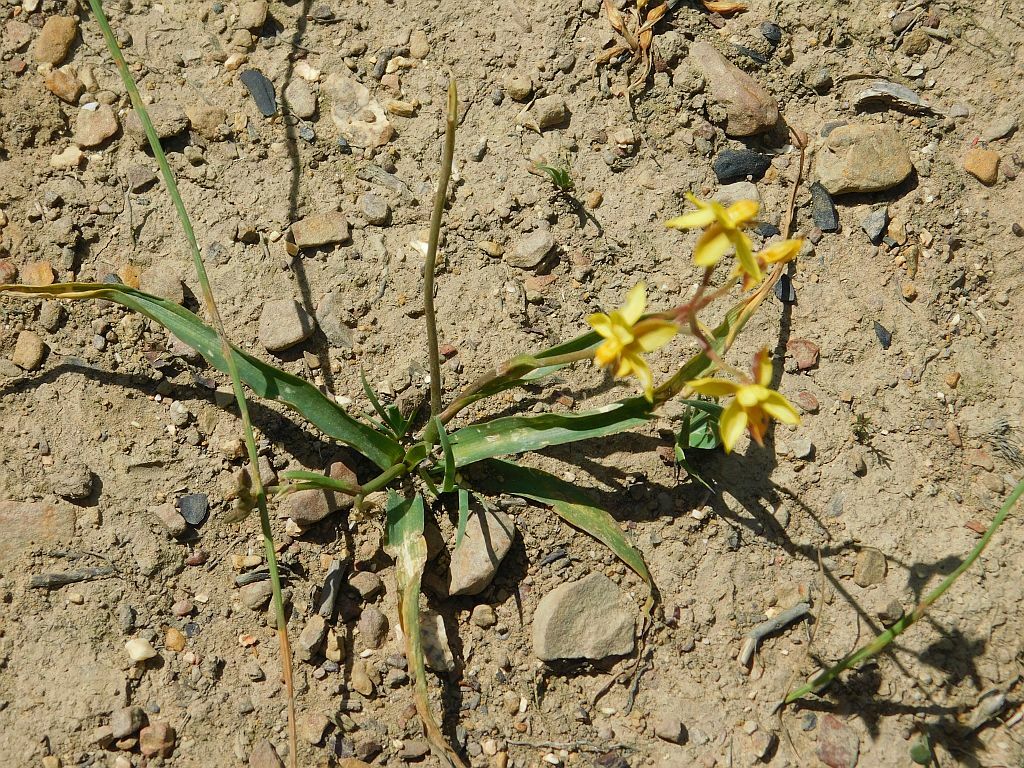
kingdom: Plantae
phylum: Tracheophyta
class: Liliopsida
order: Asparagales
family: Tecophilaeaceae
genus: Cyanella
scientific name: Cyanella lutea
